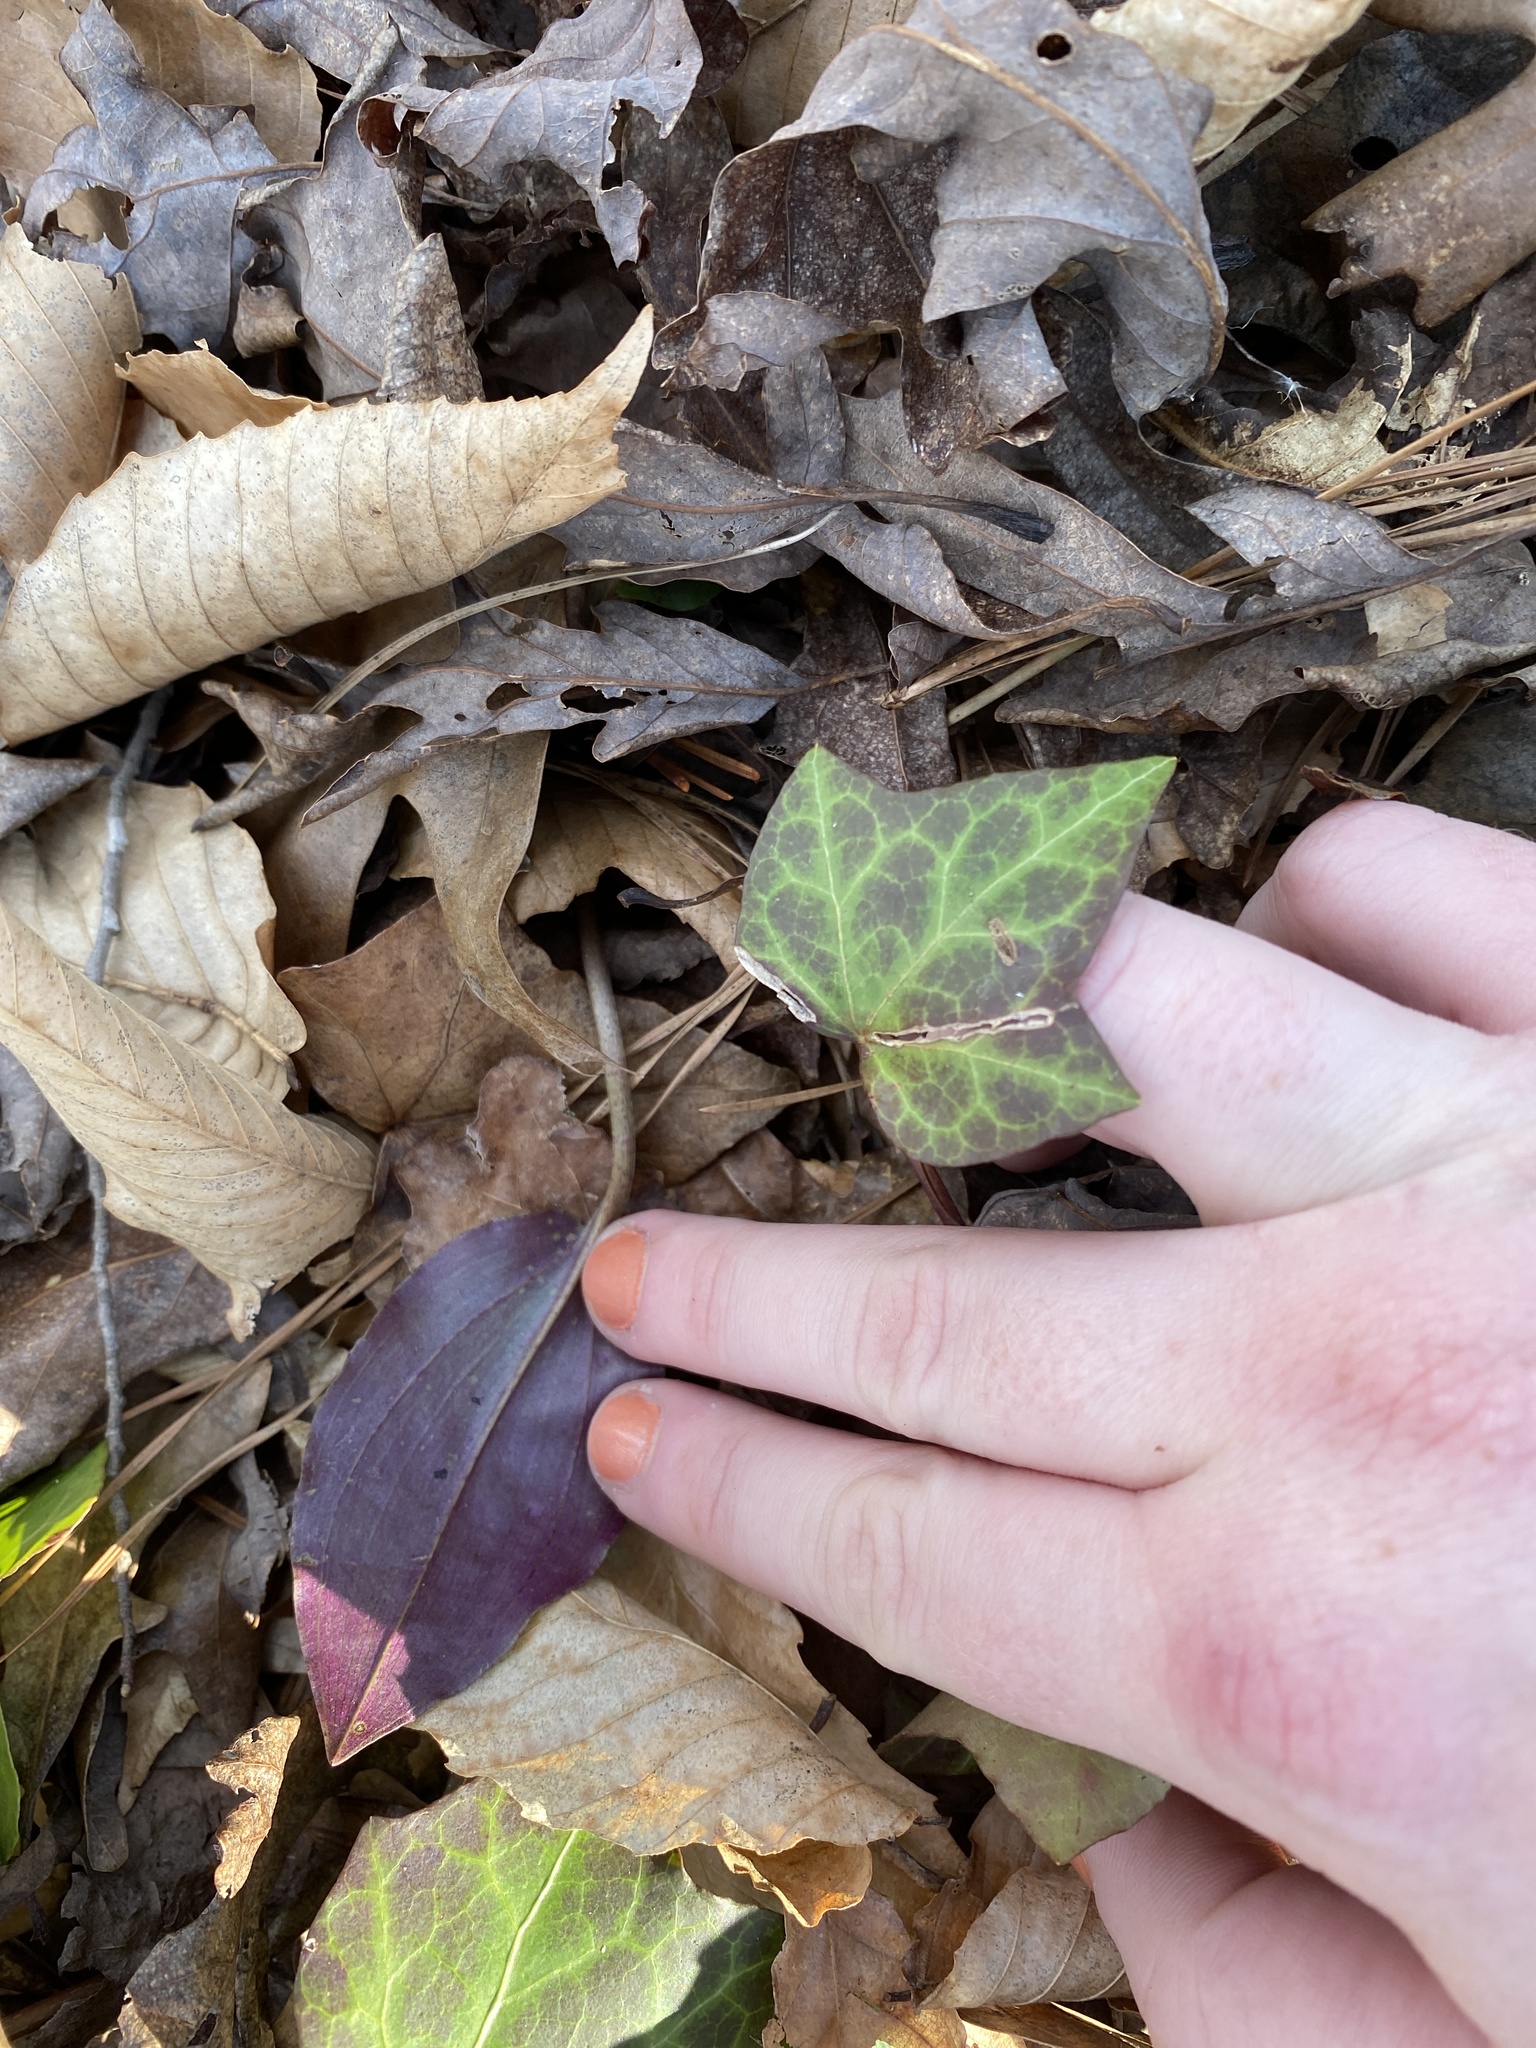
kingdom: Plantae
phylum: Tracheophyta
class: Liliopsida
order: Asparagales
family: Orchidaceae
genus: Tipularia
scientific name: Tipularia discolor
